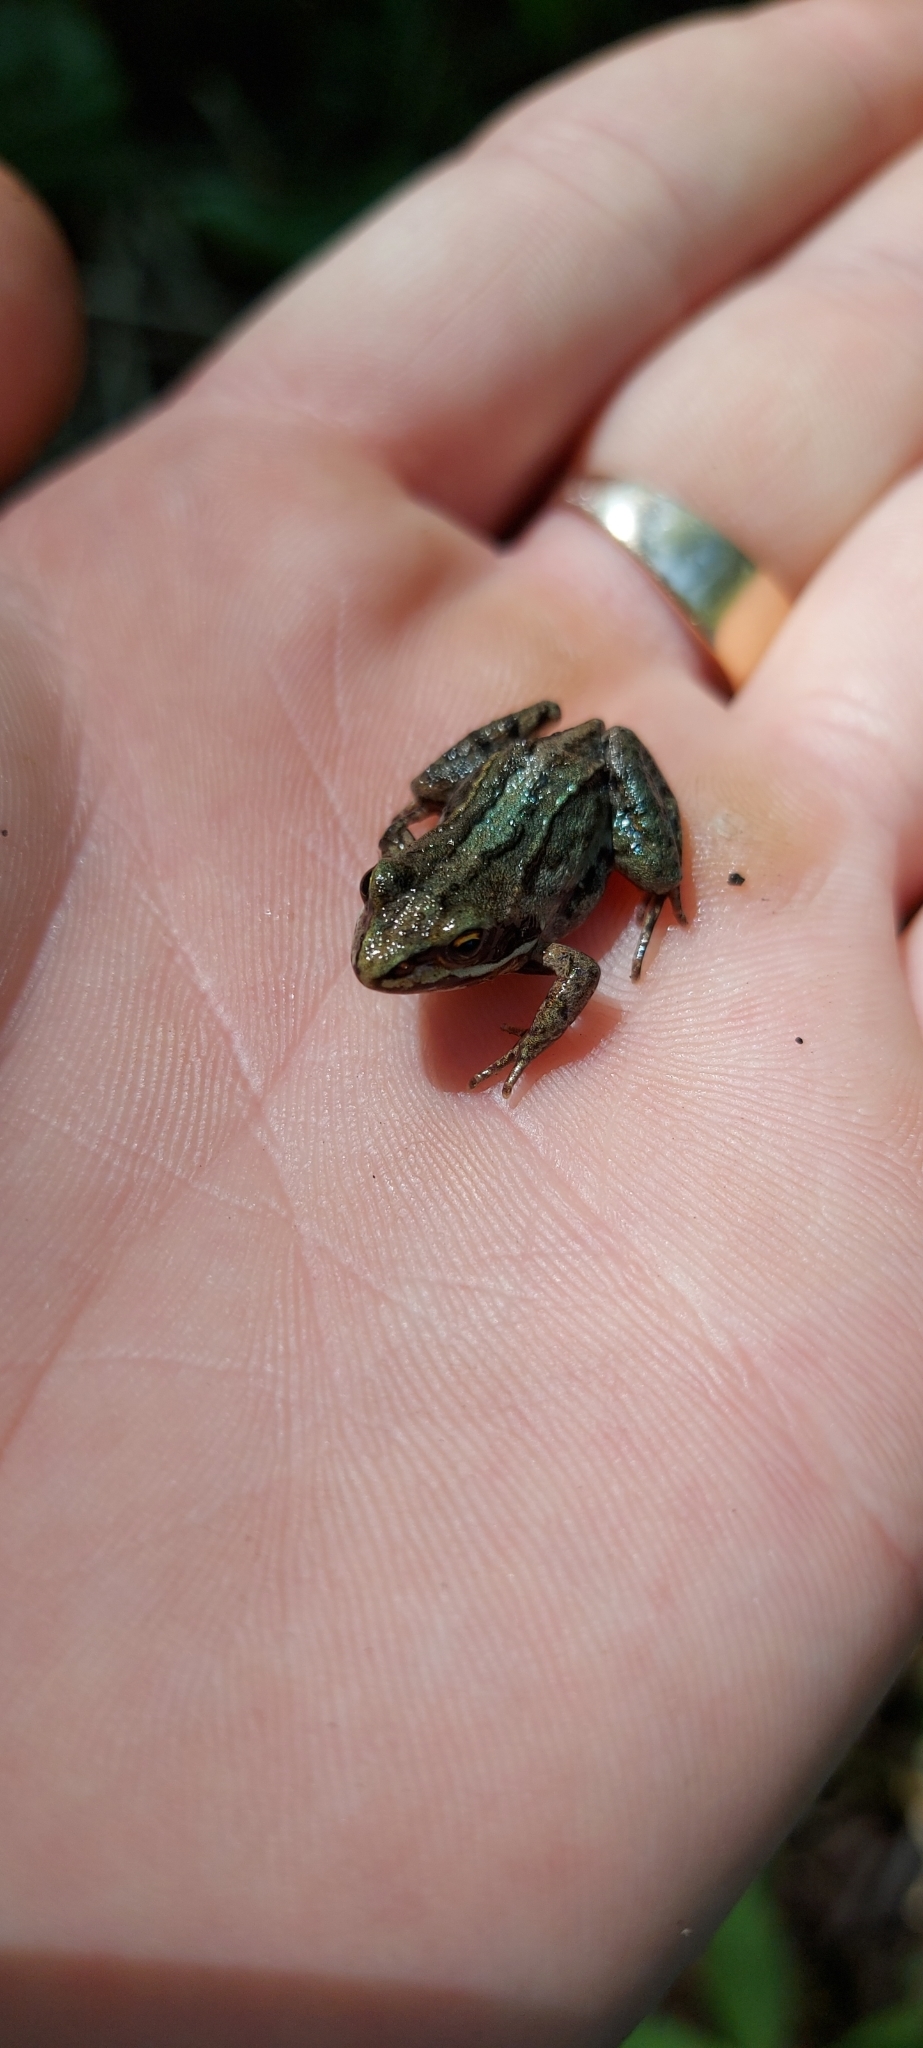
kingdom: Animalia
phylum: Chordata
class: Amphibia
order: Anura
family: Ranidae
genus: Rana
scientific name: Rana arvalis
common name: Moor frog
